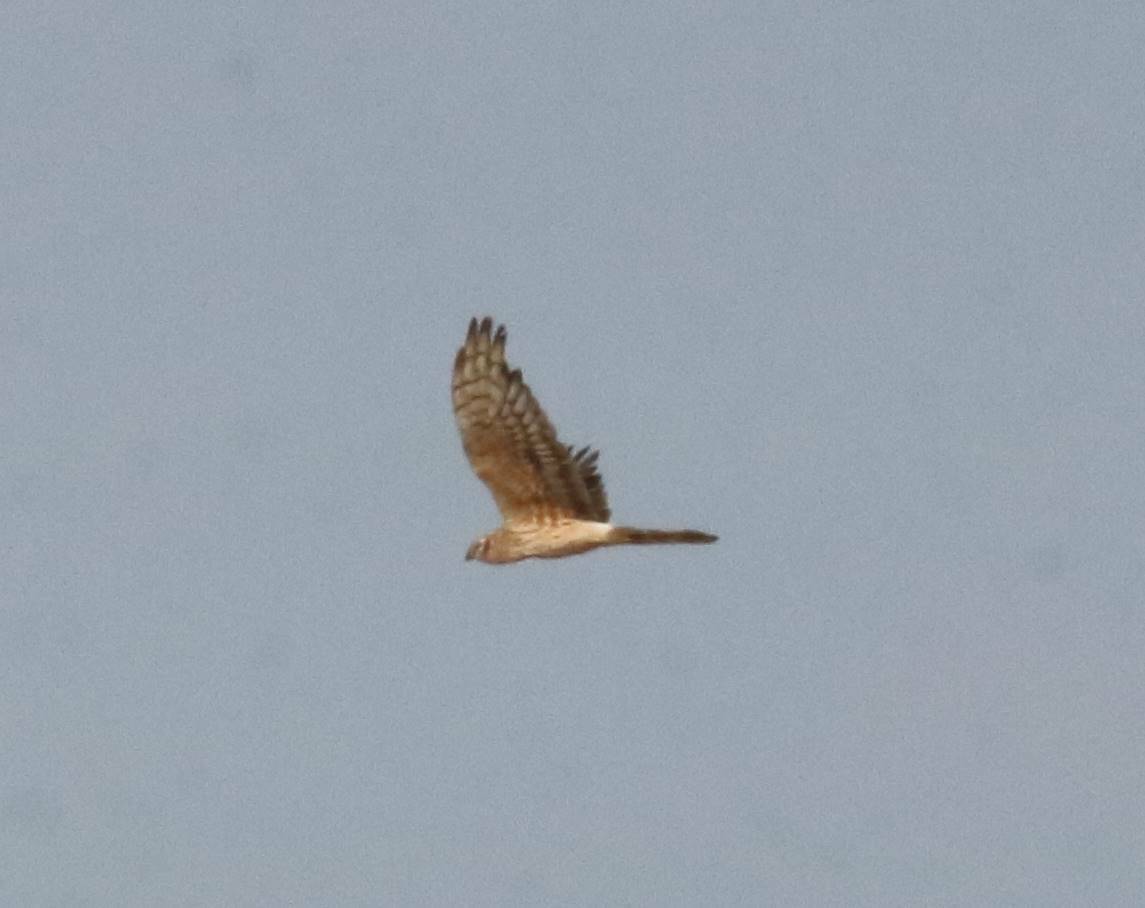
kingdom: Animalia
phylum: Chordata
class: Aves
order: Accipitriformes
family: Accipitridae
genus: Circus
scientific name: Circus pygargus
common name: Montagu's harrier
